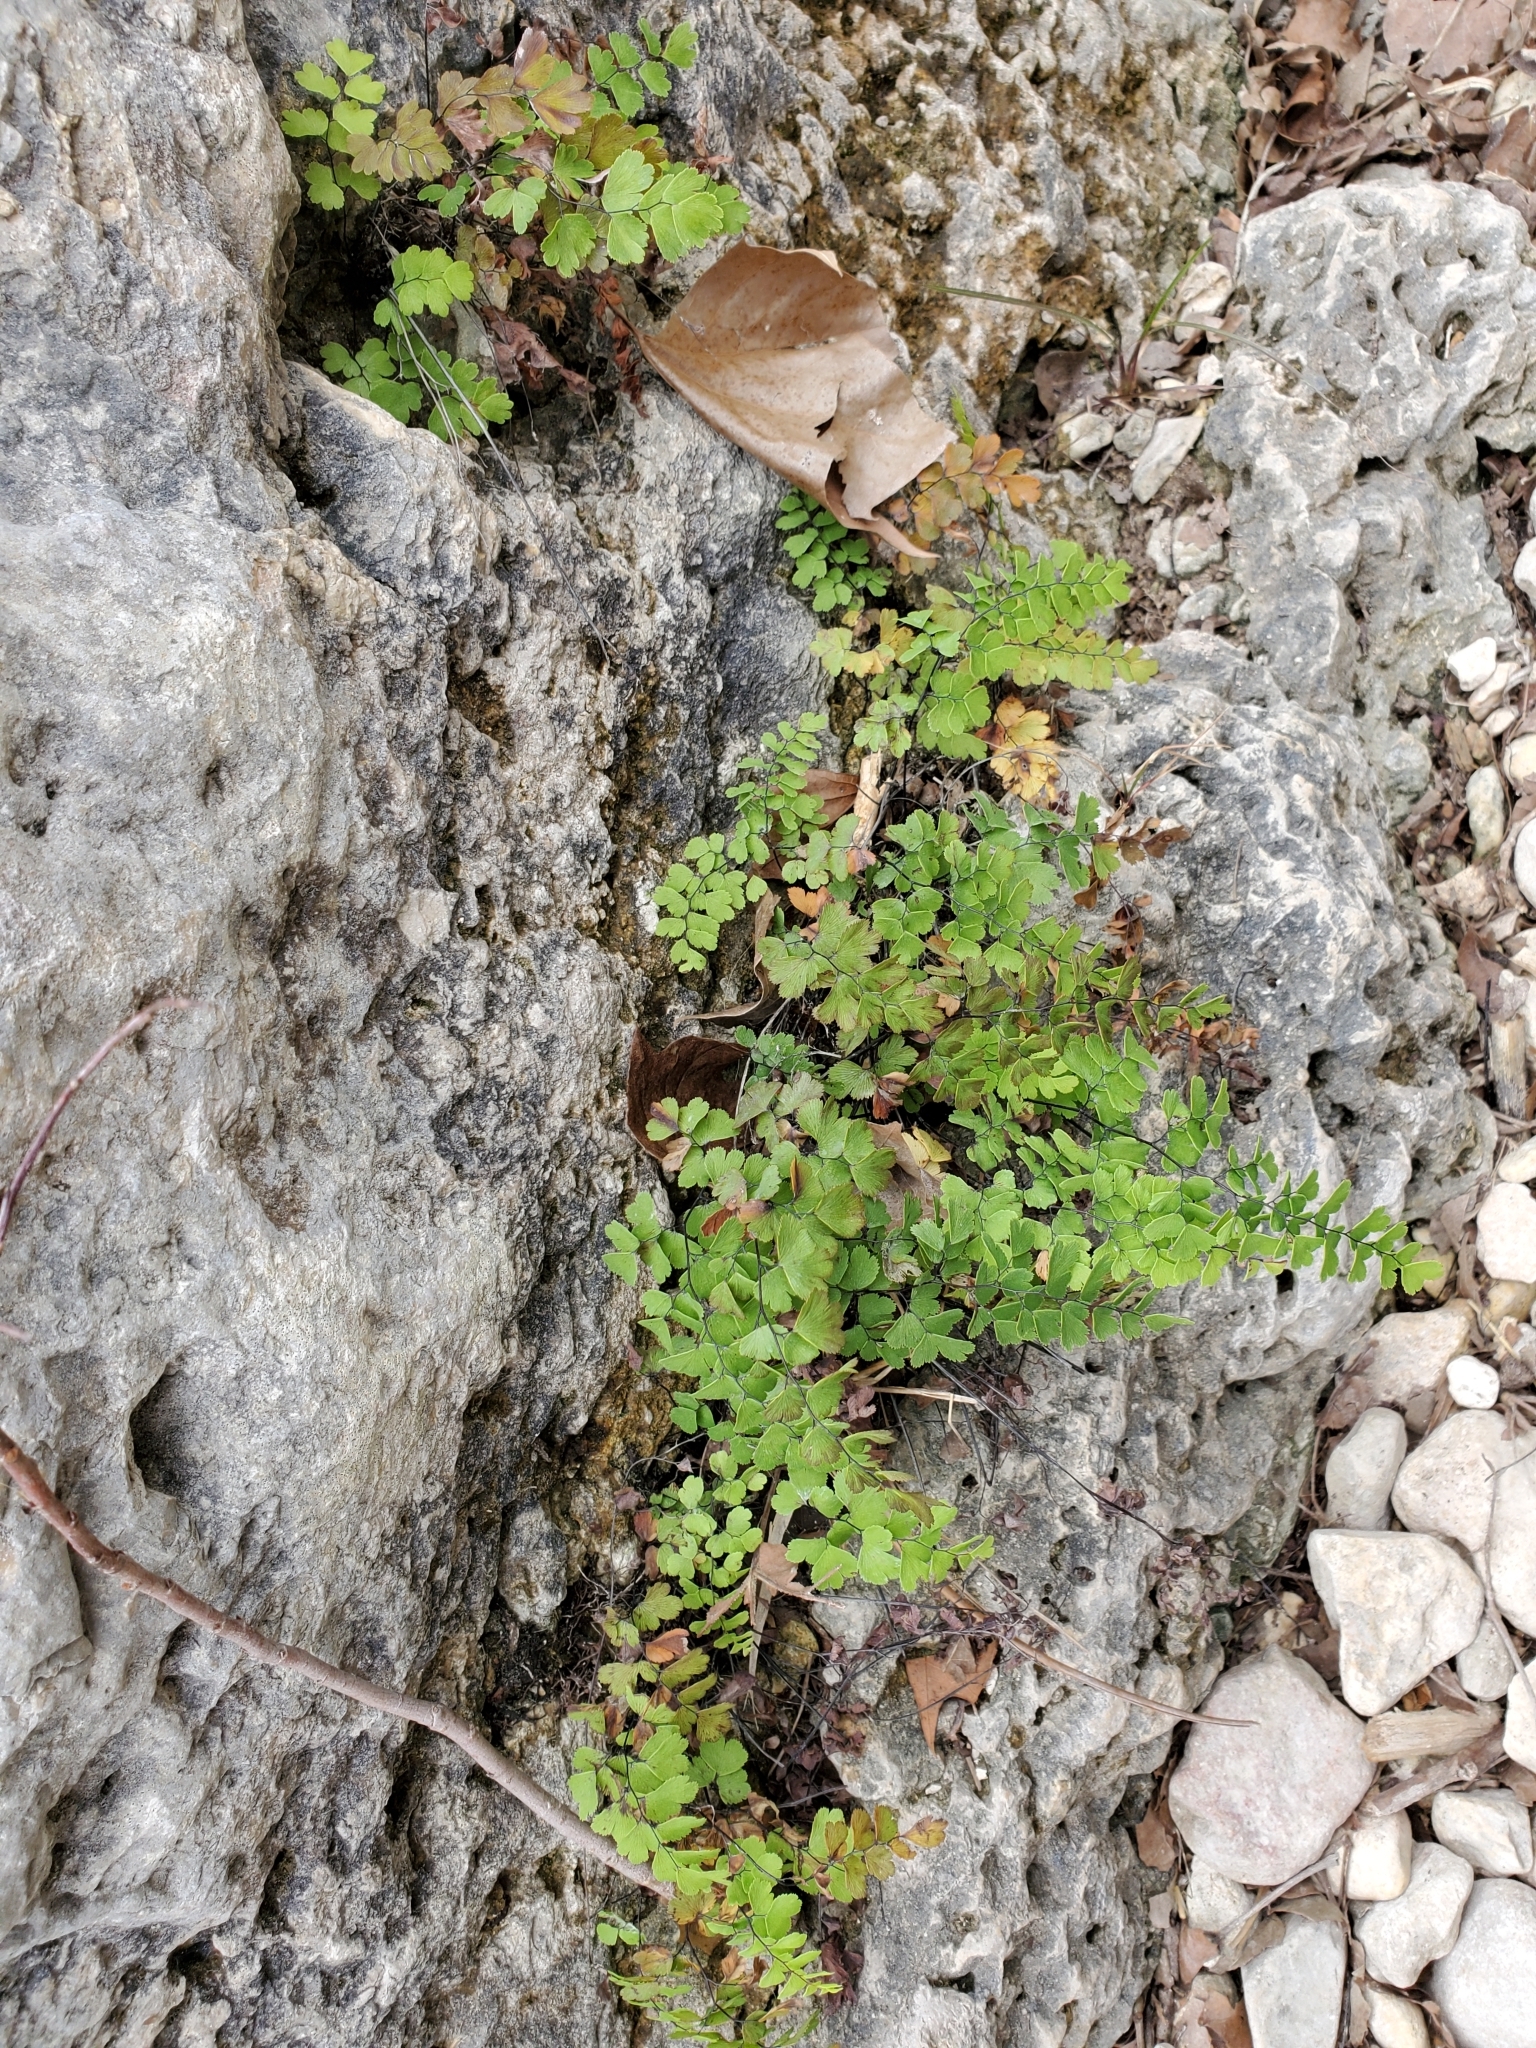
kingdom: Plantae
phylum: Tracheophyta
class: Polypodiopsida
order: Polypodiales
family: Pteridaceae
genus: Adiantum
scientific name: Adiantum capillus-veneris
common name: Maidenhair fern
